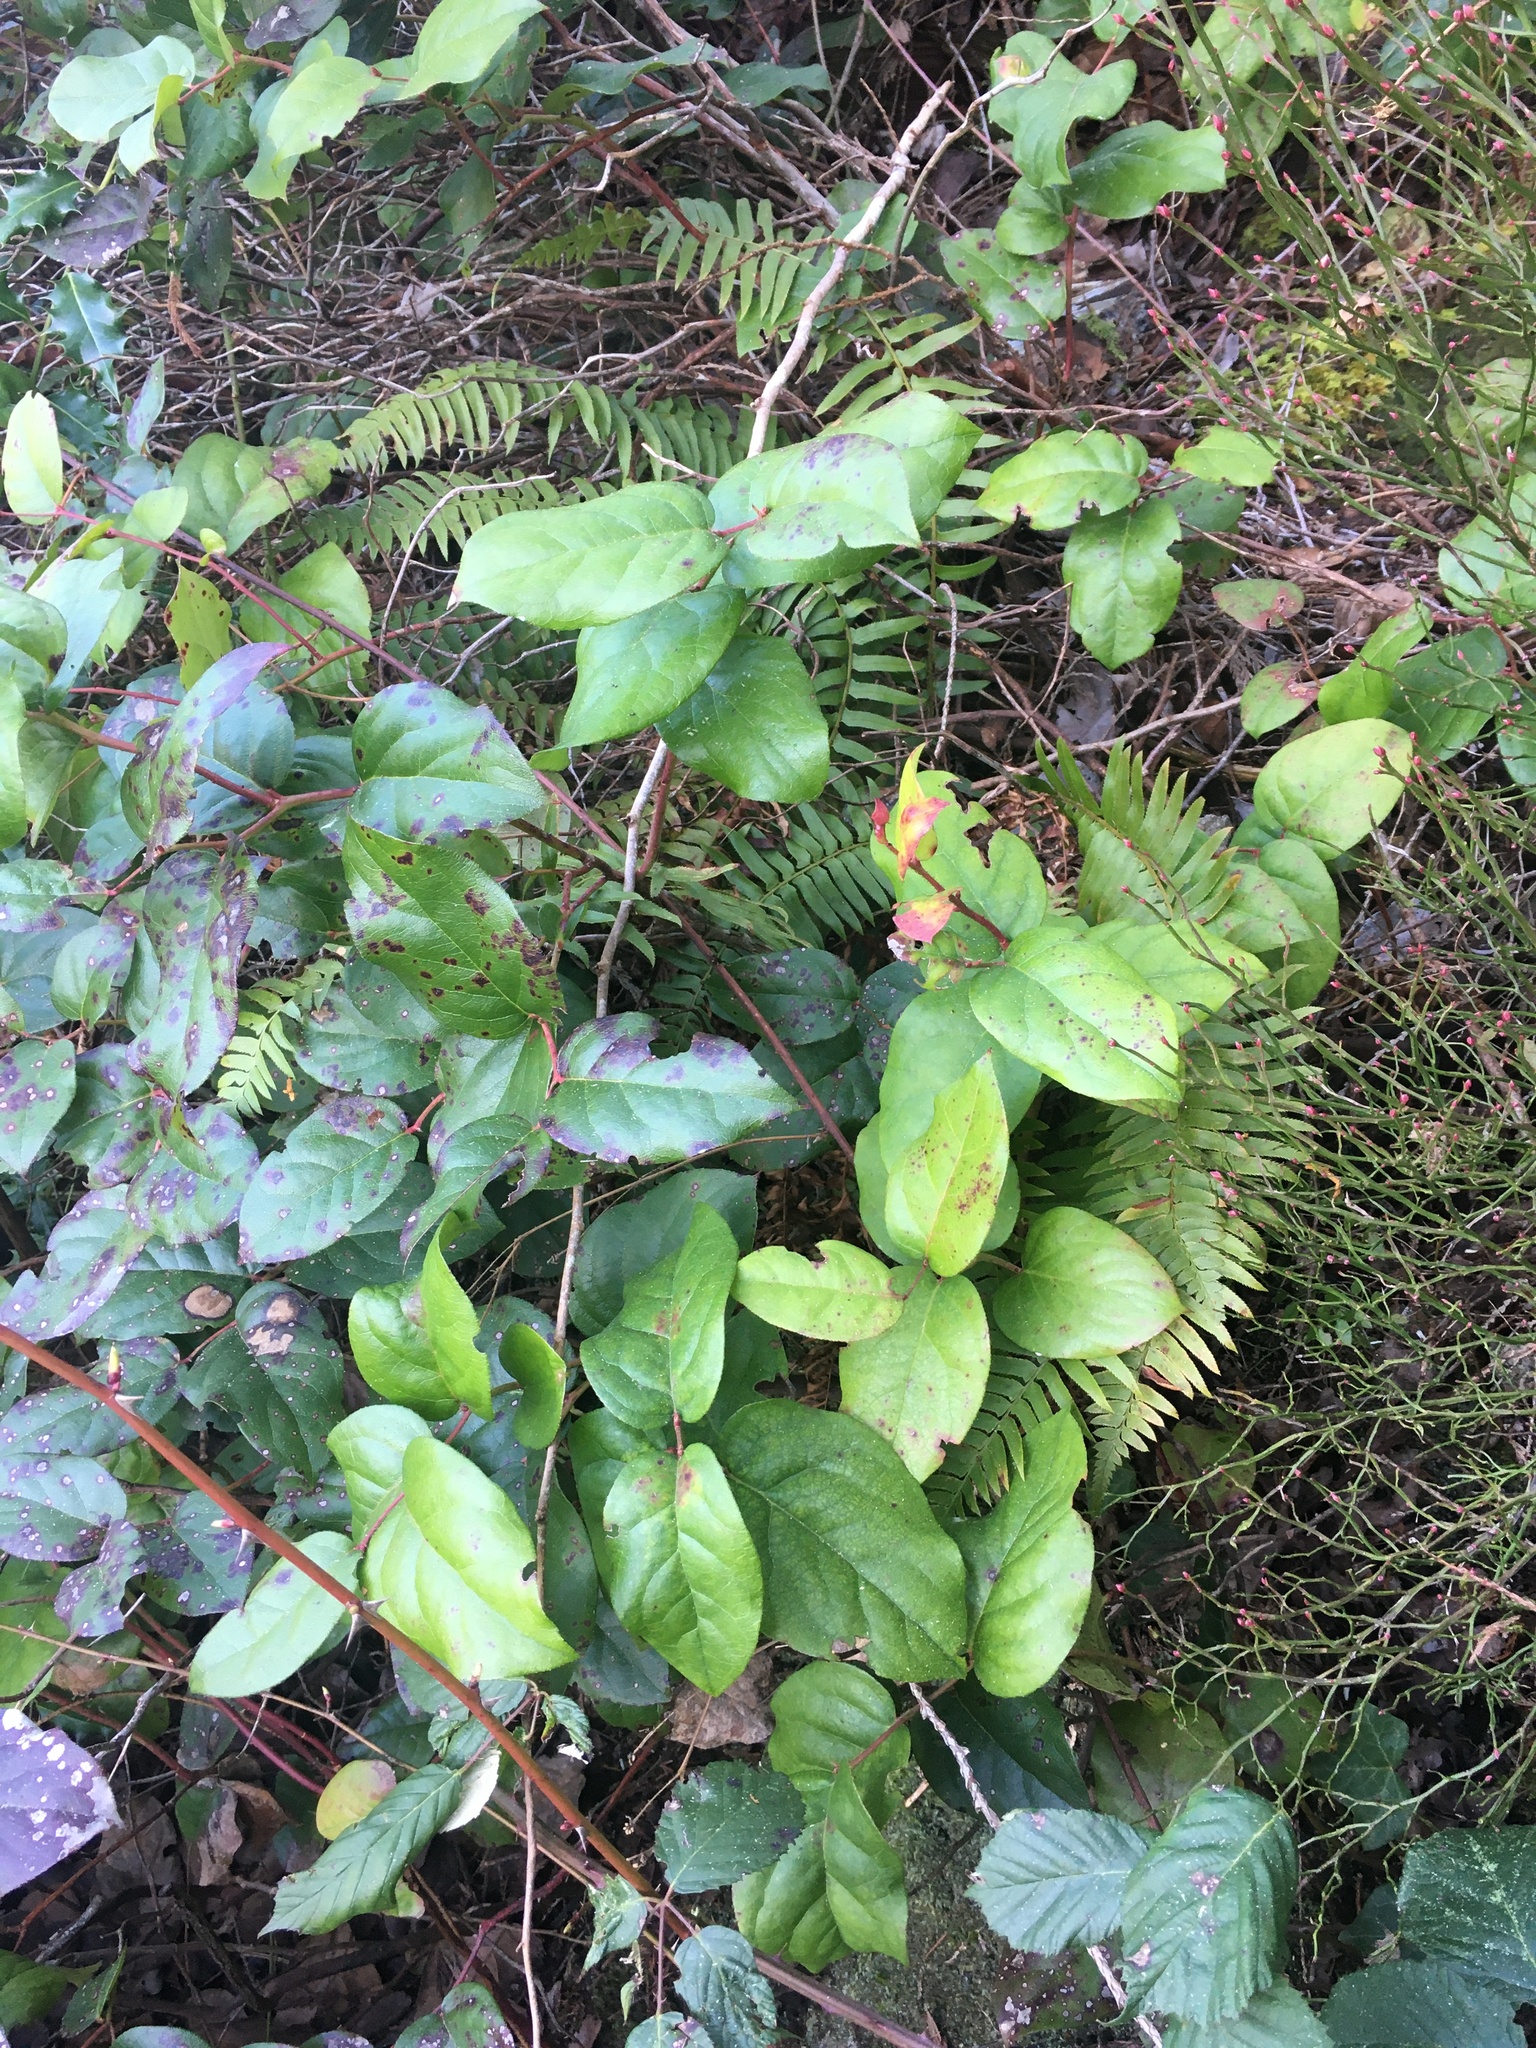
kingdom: Plantae
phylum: Tracheophyta
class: Magnoliopsida
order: Ericales
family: Ericaceae
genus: Gaultheria
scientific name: Gaultheria shallon
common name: Shallon
